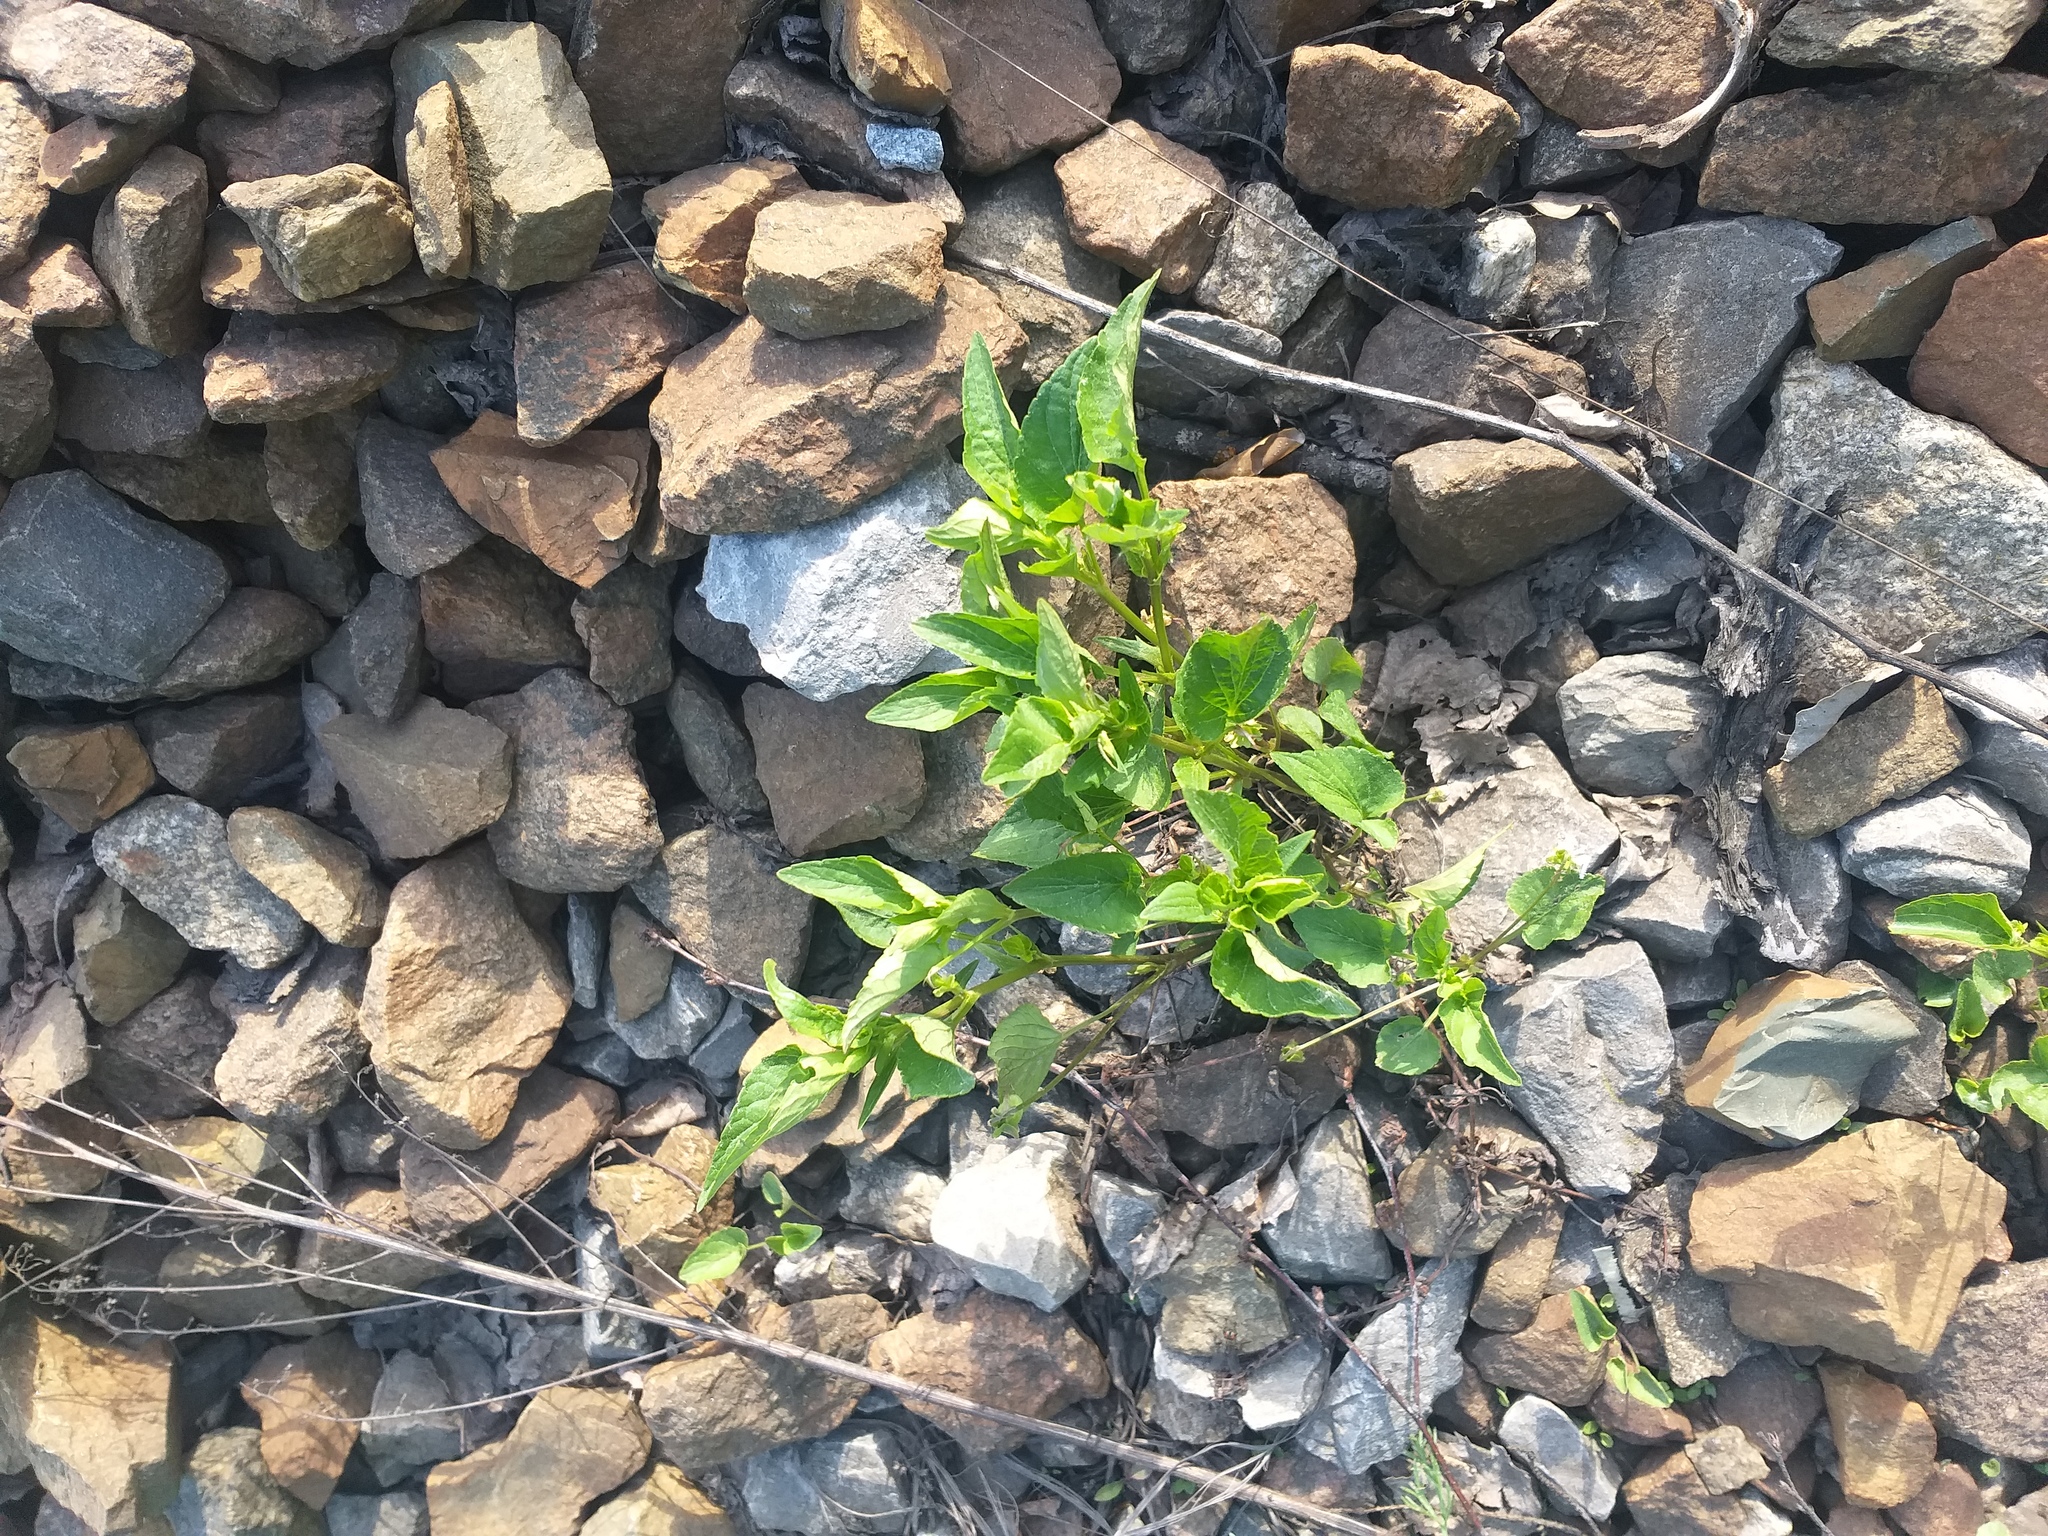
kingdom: Plantae
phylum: Tracheophyta
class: Magnoliopsida
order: Malpighiales
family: Violaceae
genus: Viola
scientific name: Viola canina
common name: Heath dog-violet
